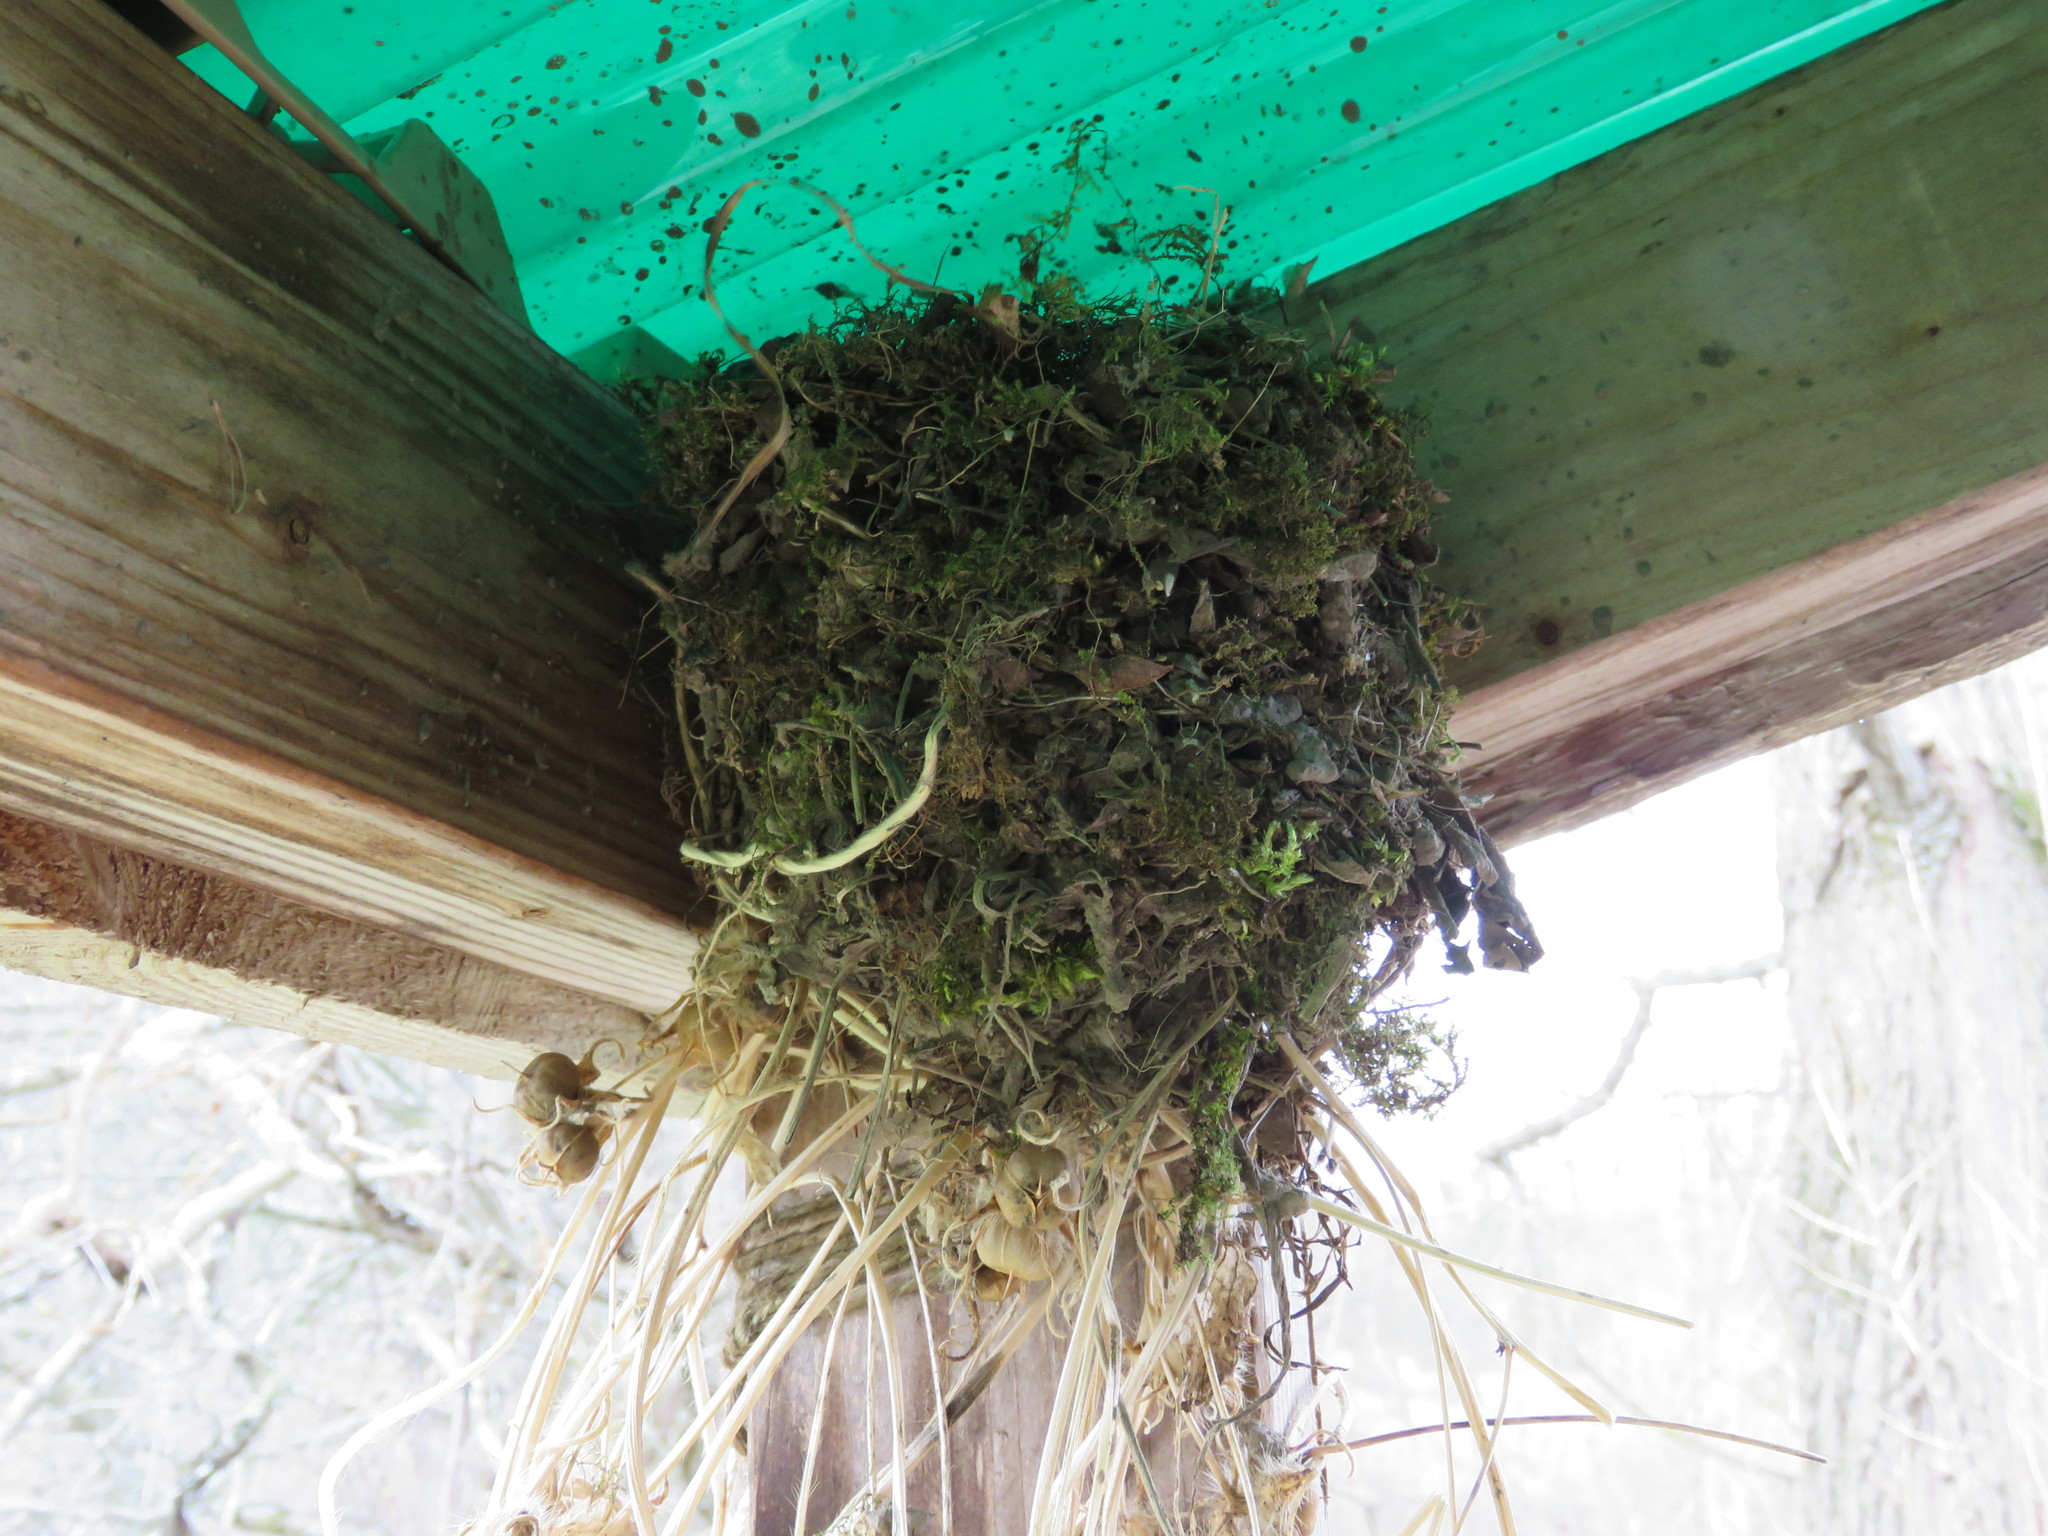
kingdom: Animalia
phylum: Chordata
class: Aves
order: Passeriformes
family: Tyrannidae
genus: Sayornis
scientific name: Sayornis phoebe
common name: Eastern phoebe
